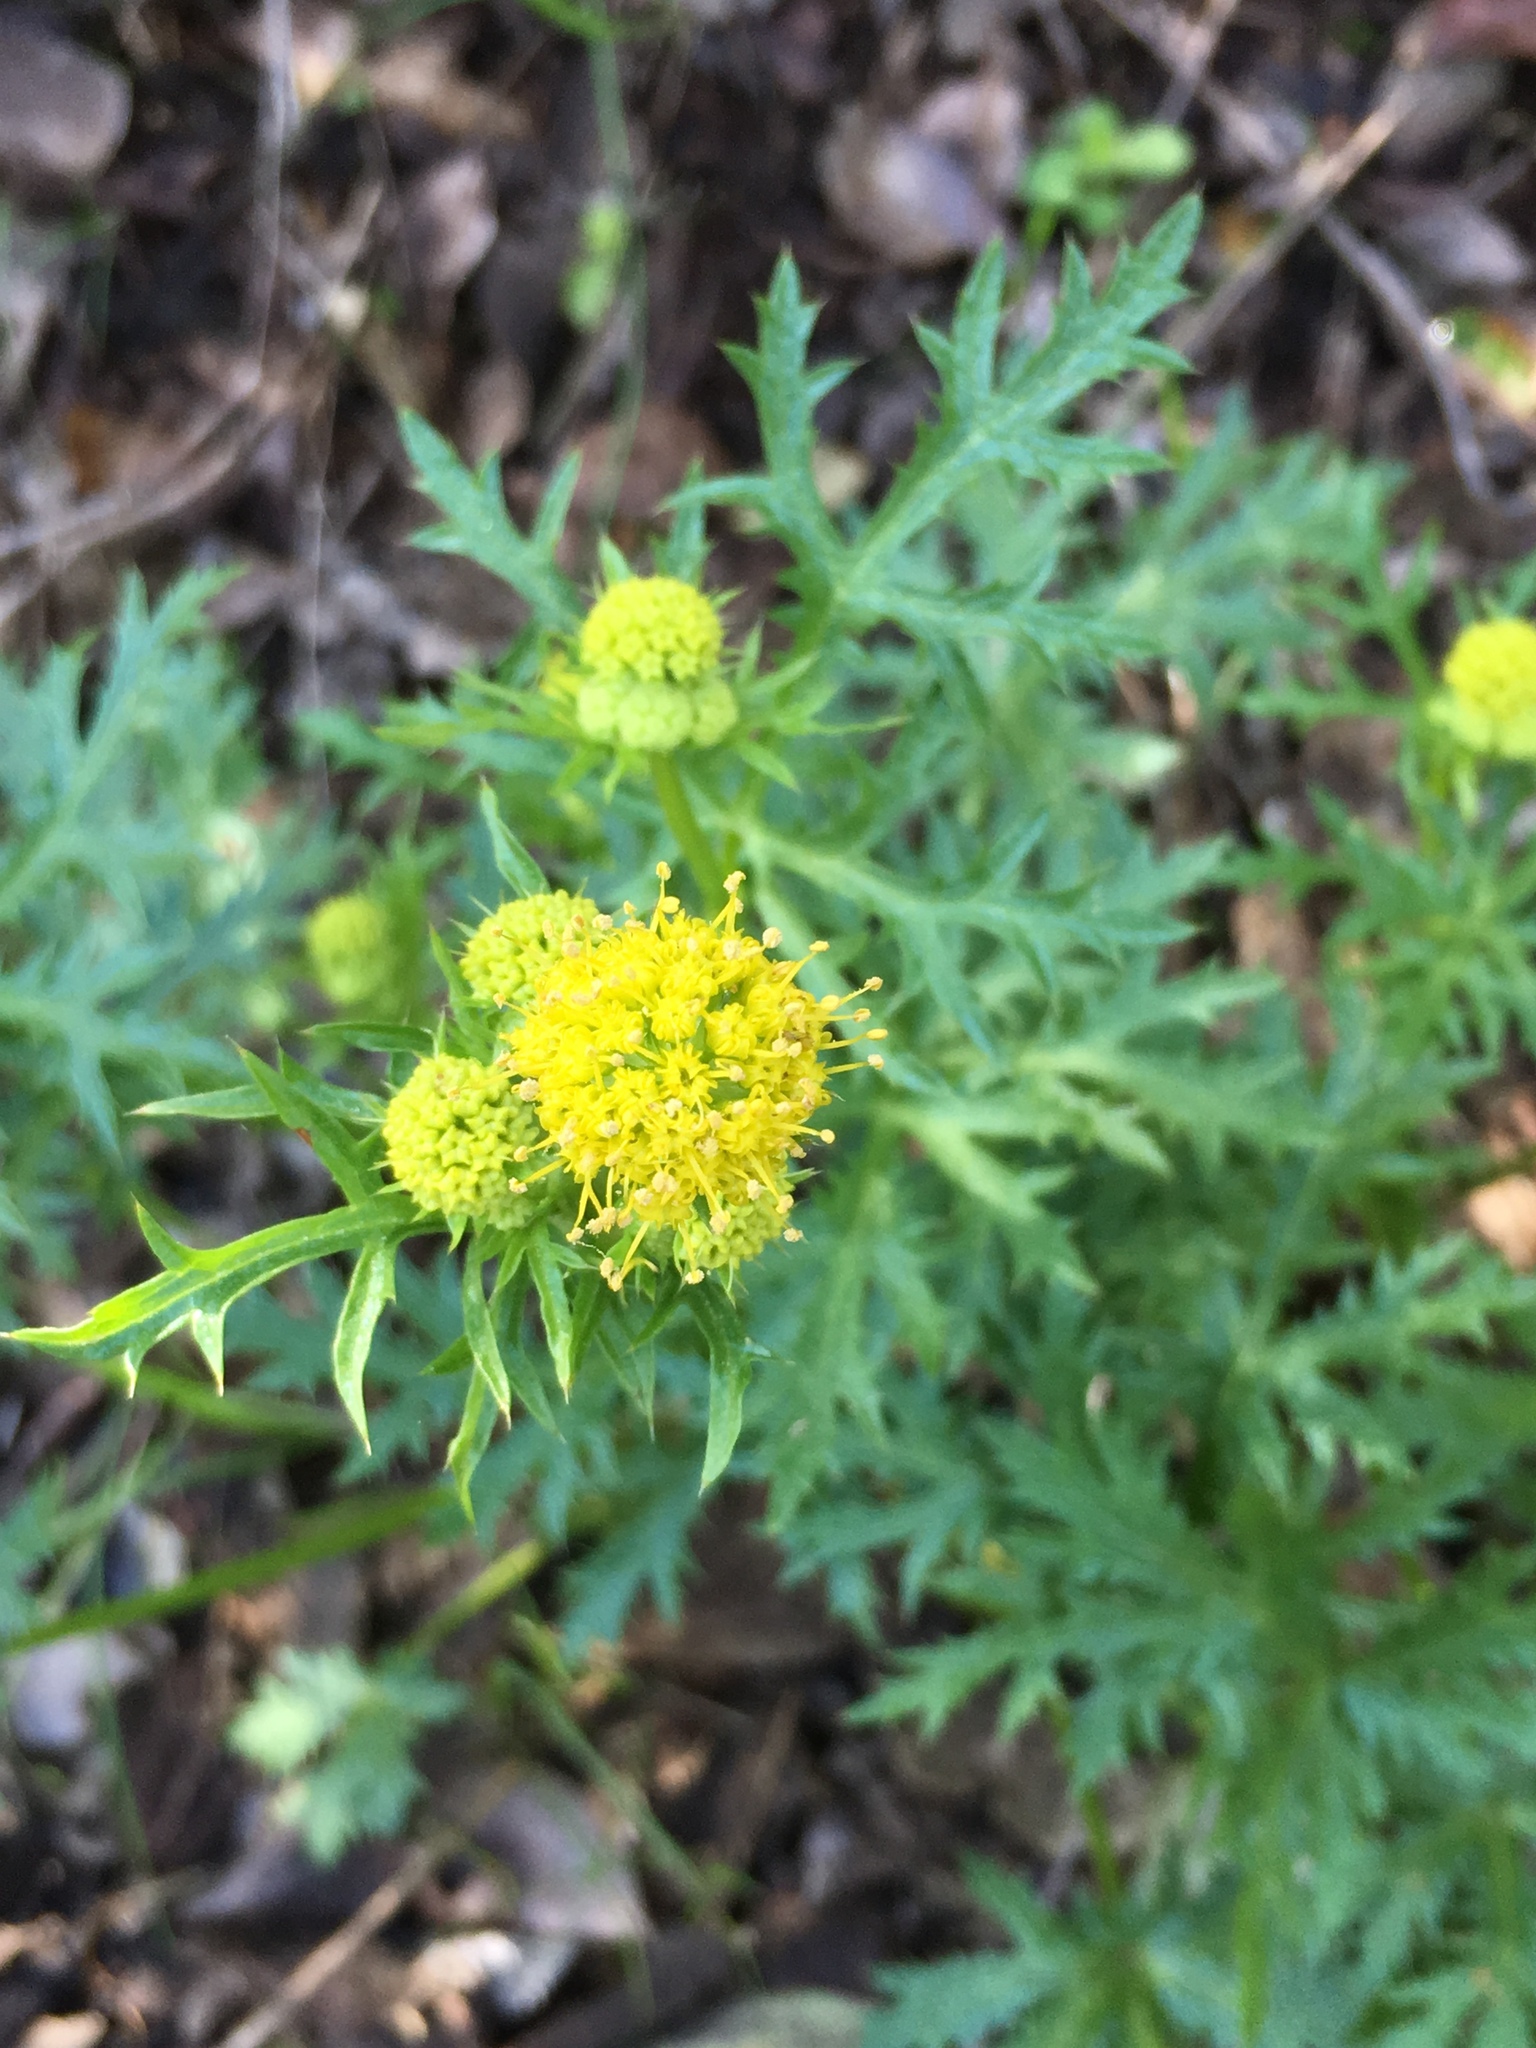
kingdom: Plantae
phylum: Tracheophyta
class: Magnoliopsida
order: Apiales
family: Apiaceae
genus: Sanicula
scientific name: Sanicula arguta
